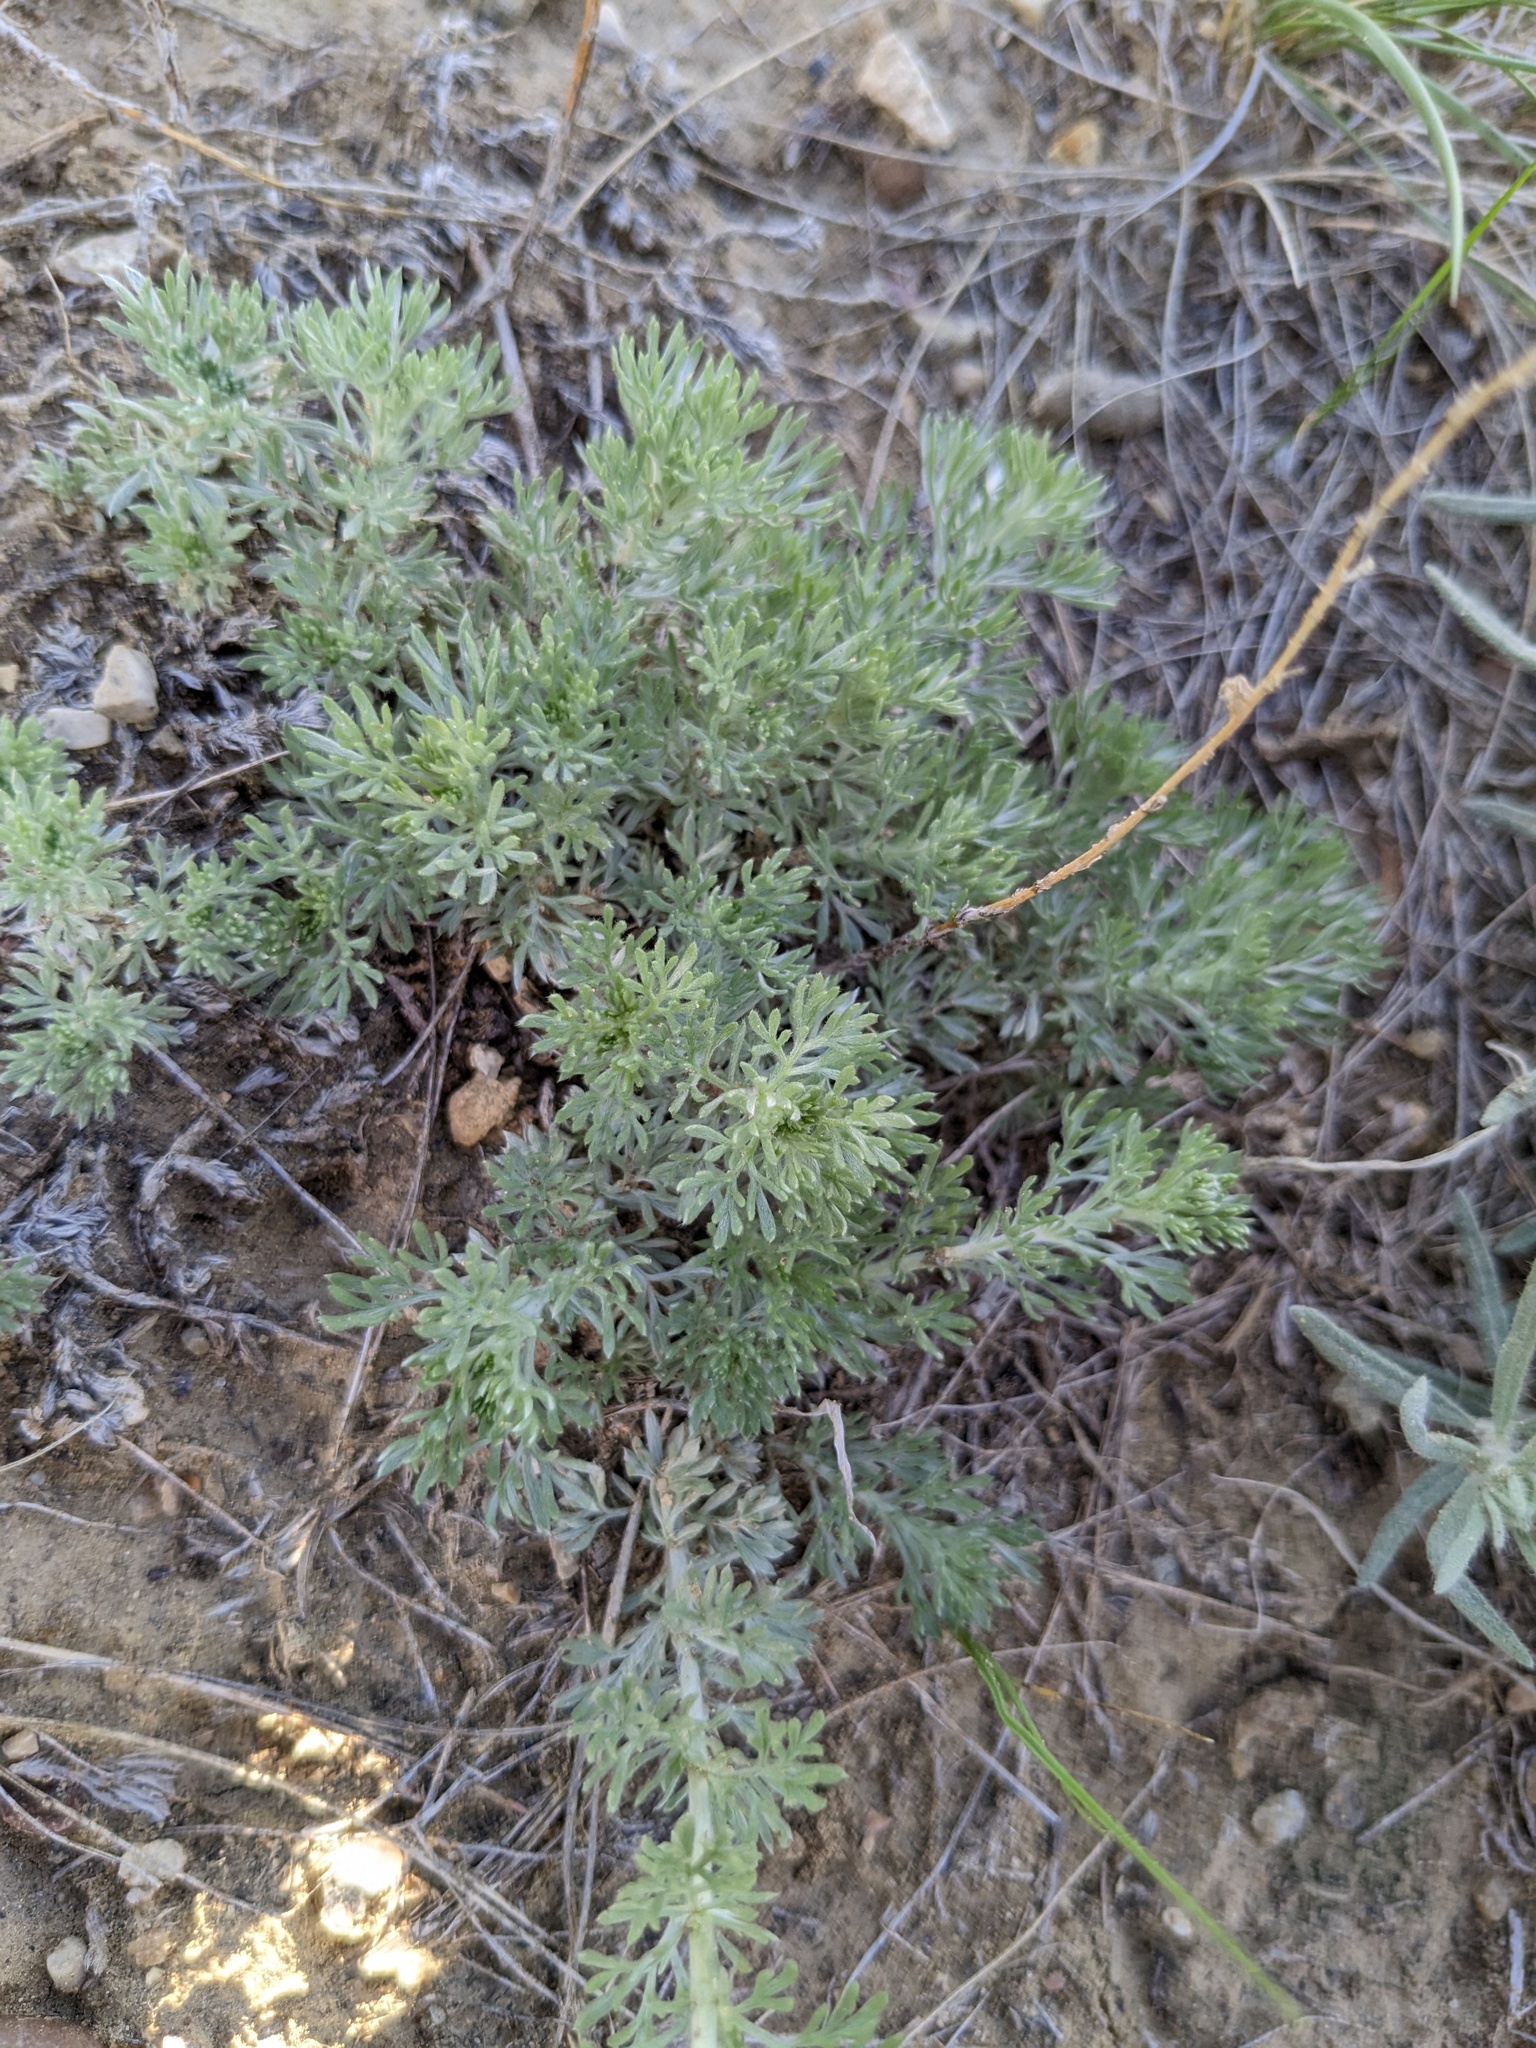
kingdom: Plantae
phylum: Tracheophyta
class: Magnoliopsida
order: Asterales
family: Asteraceae
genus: Artemisia
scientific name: Artemisia frigida
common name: Prairie sagewort
